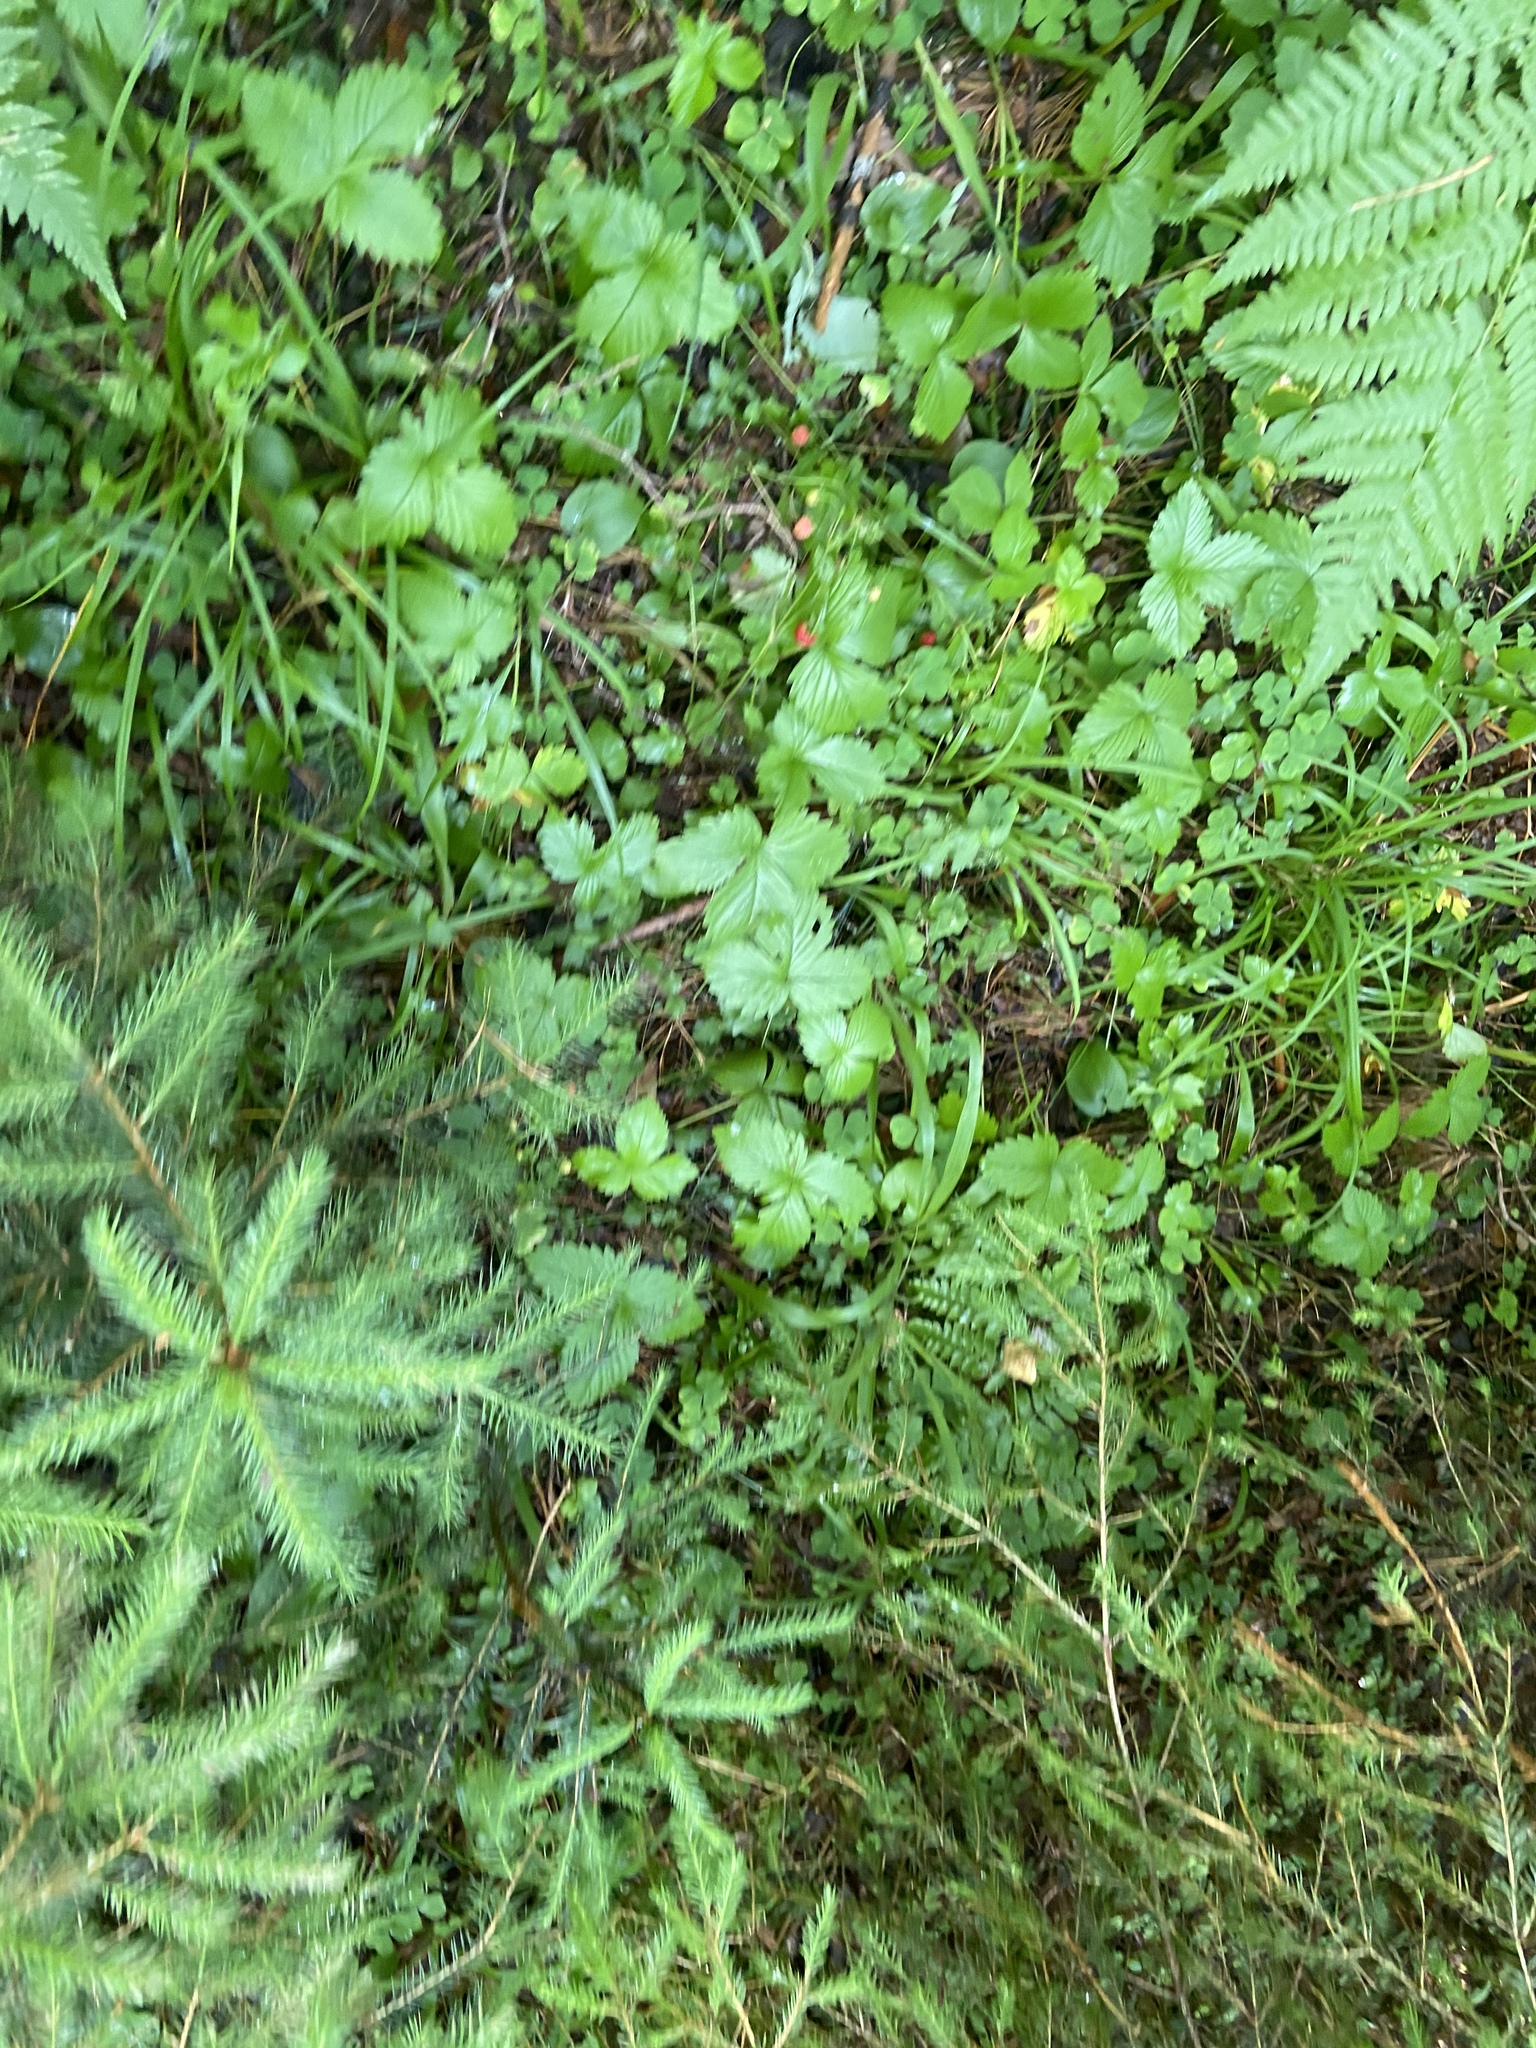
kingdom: Plantae
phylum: Tracheophyta
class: Magnoliopsida
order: Rosales
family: Rosaceae
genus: Fragaria
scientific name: Fragaria vesca
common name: Wild strawberry
